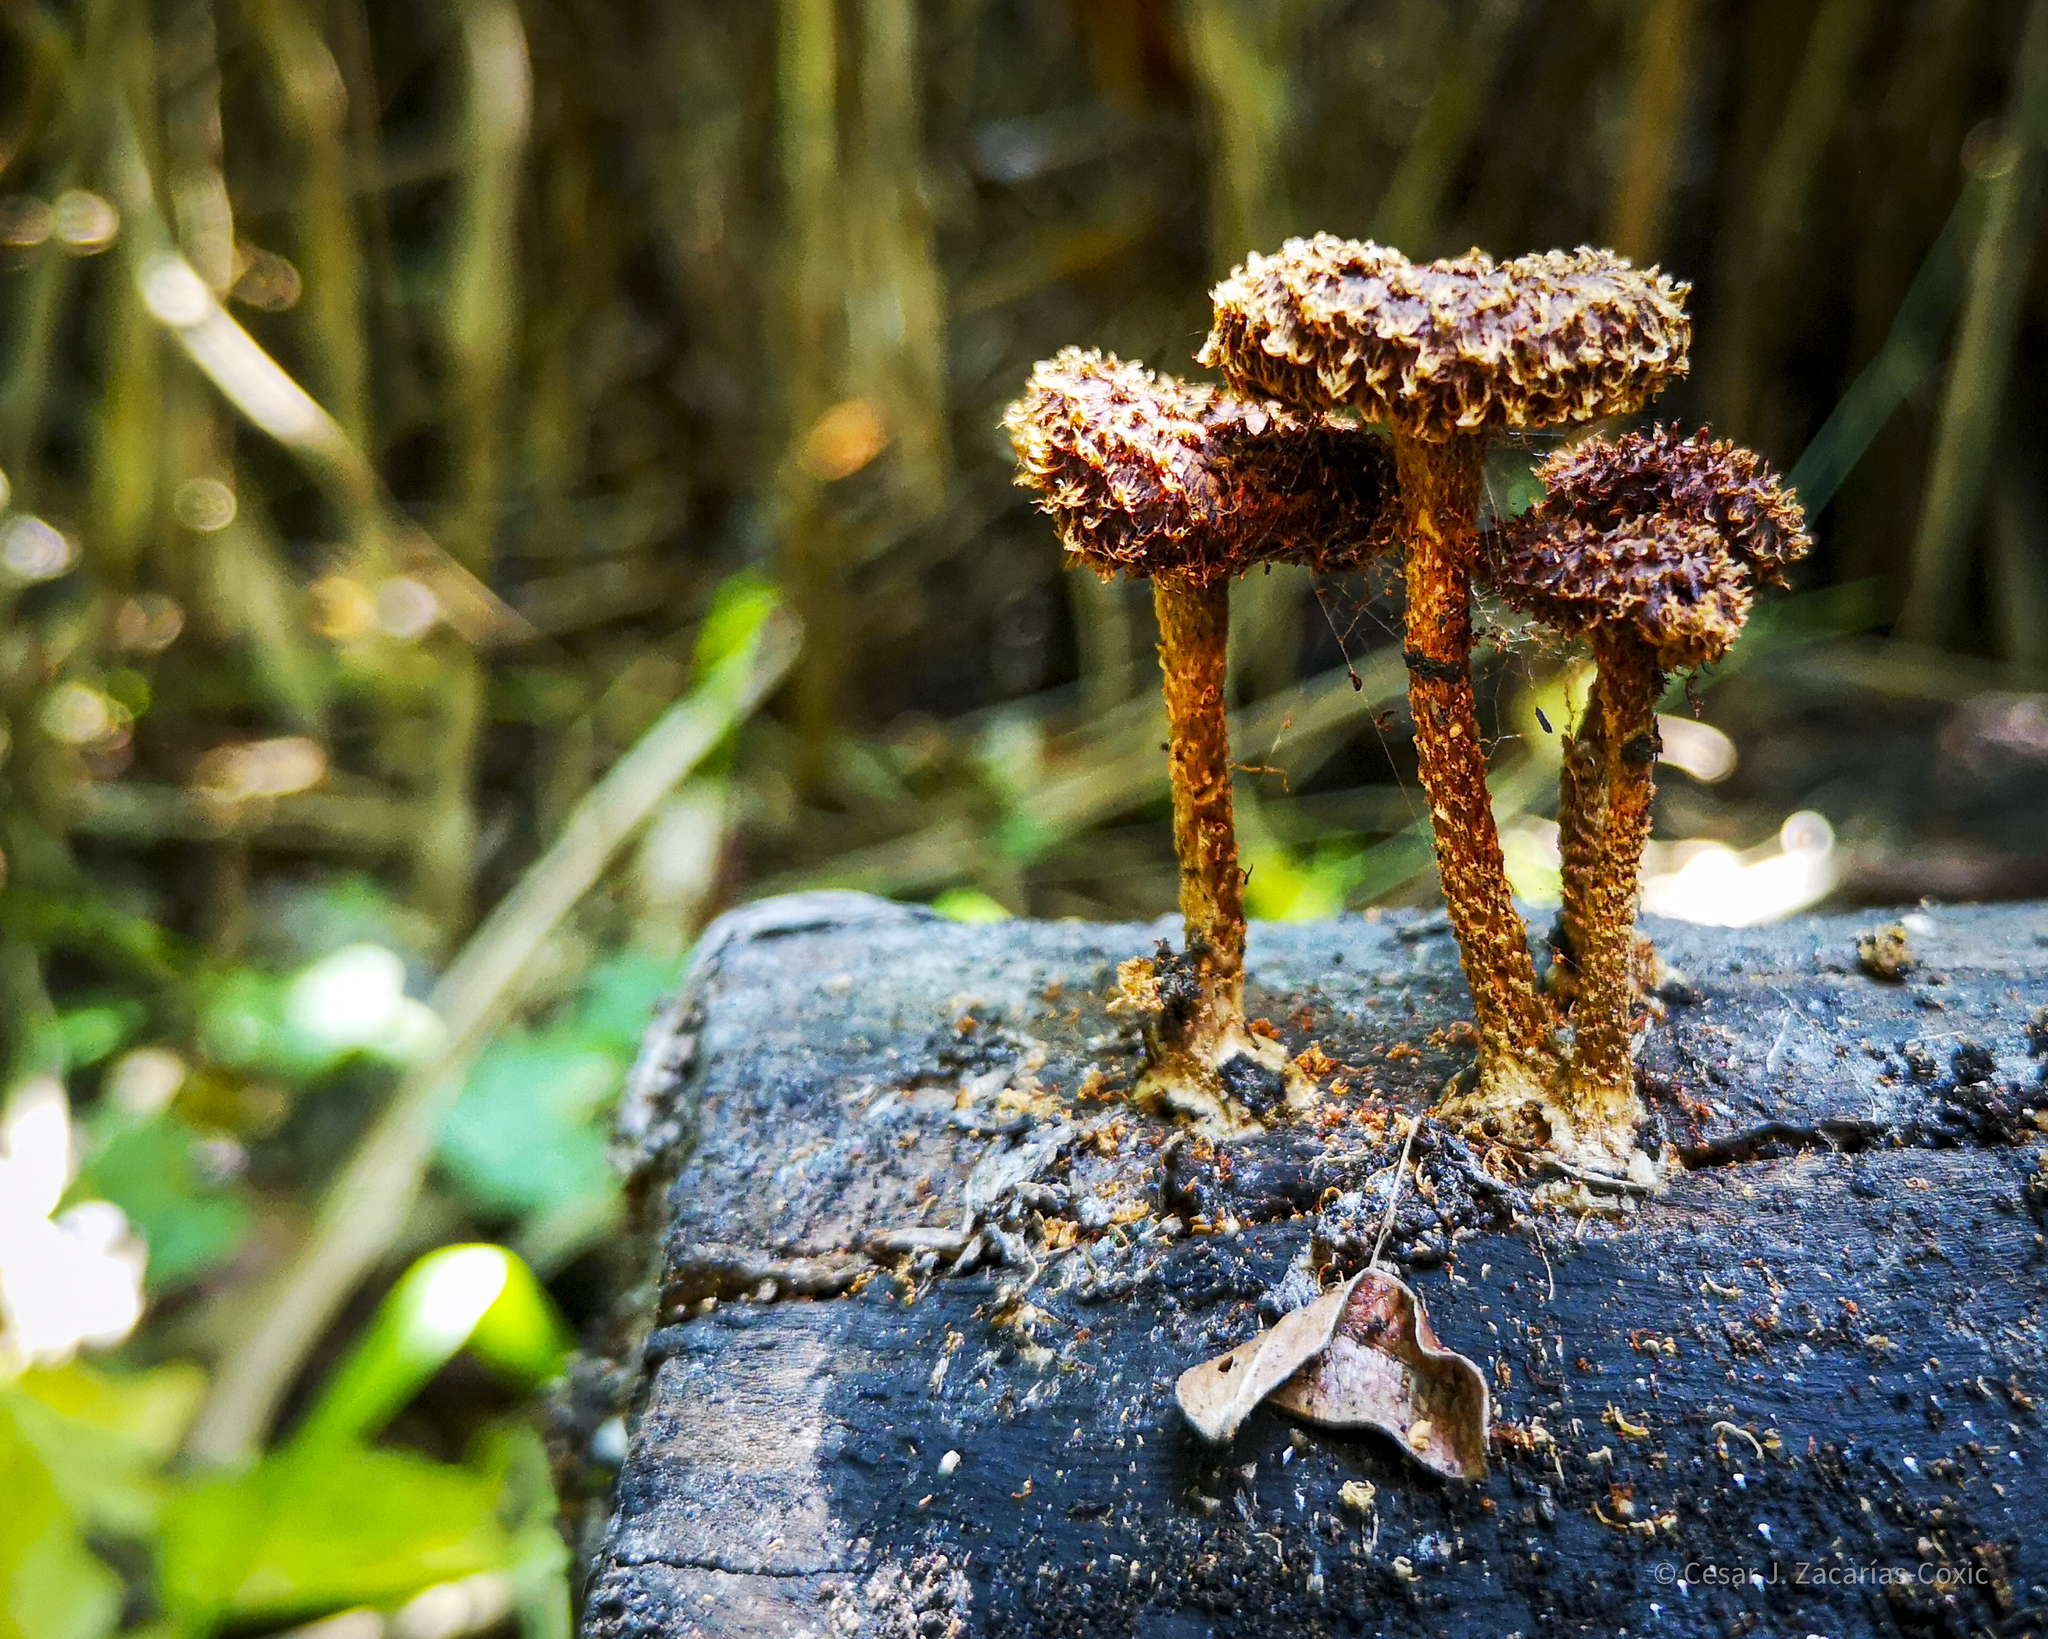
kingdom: Fungi
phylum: Basidiomycota
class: Agaricomycetes
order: Polyporales
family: Polyporaceae
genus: Lentinus
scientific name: Lentinus berteroi
